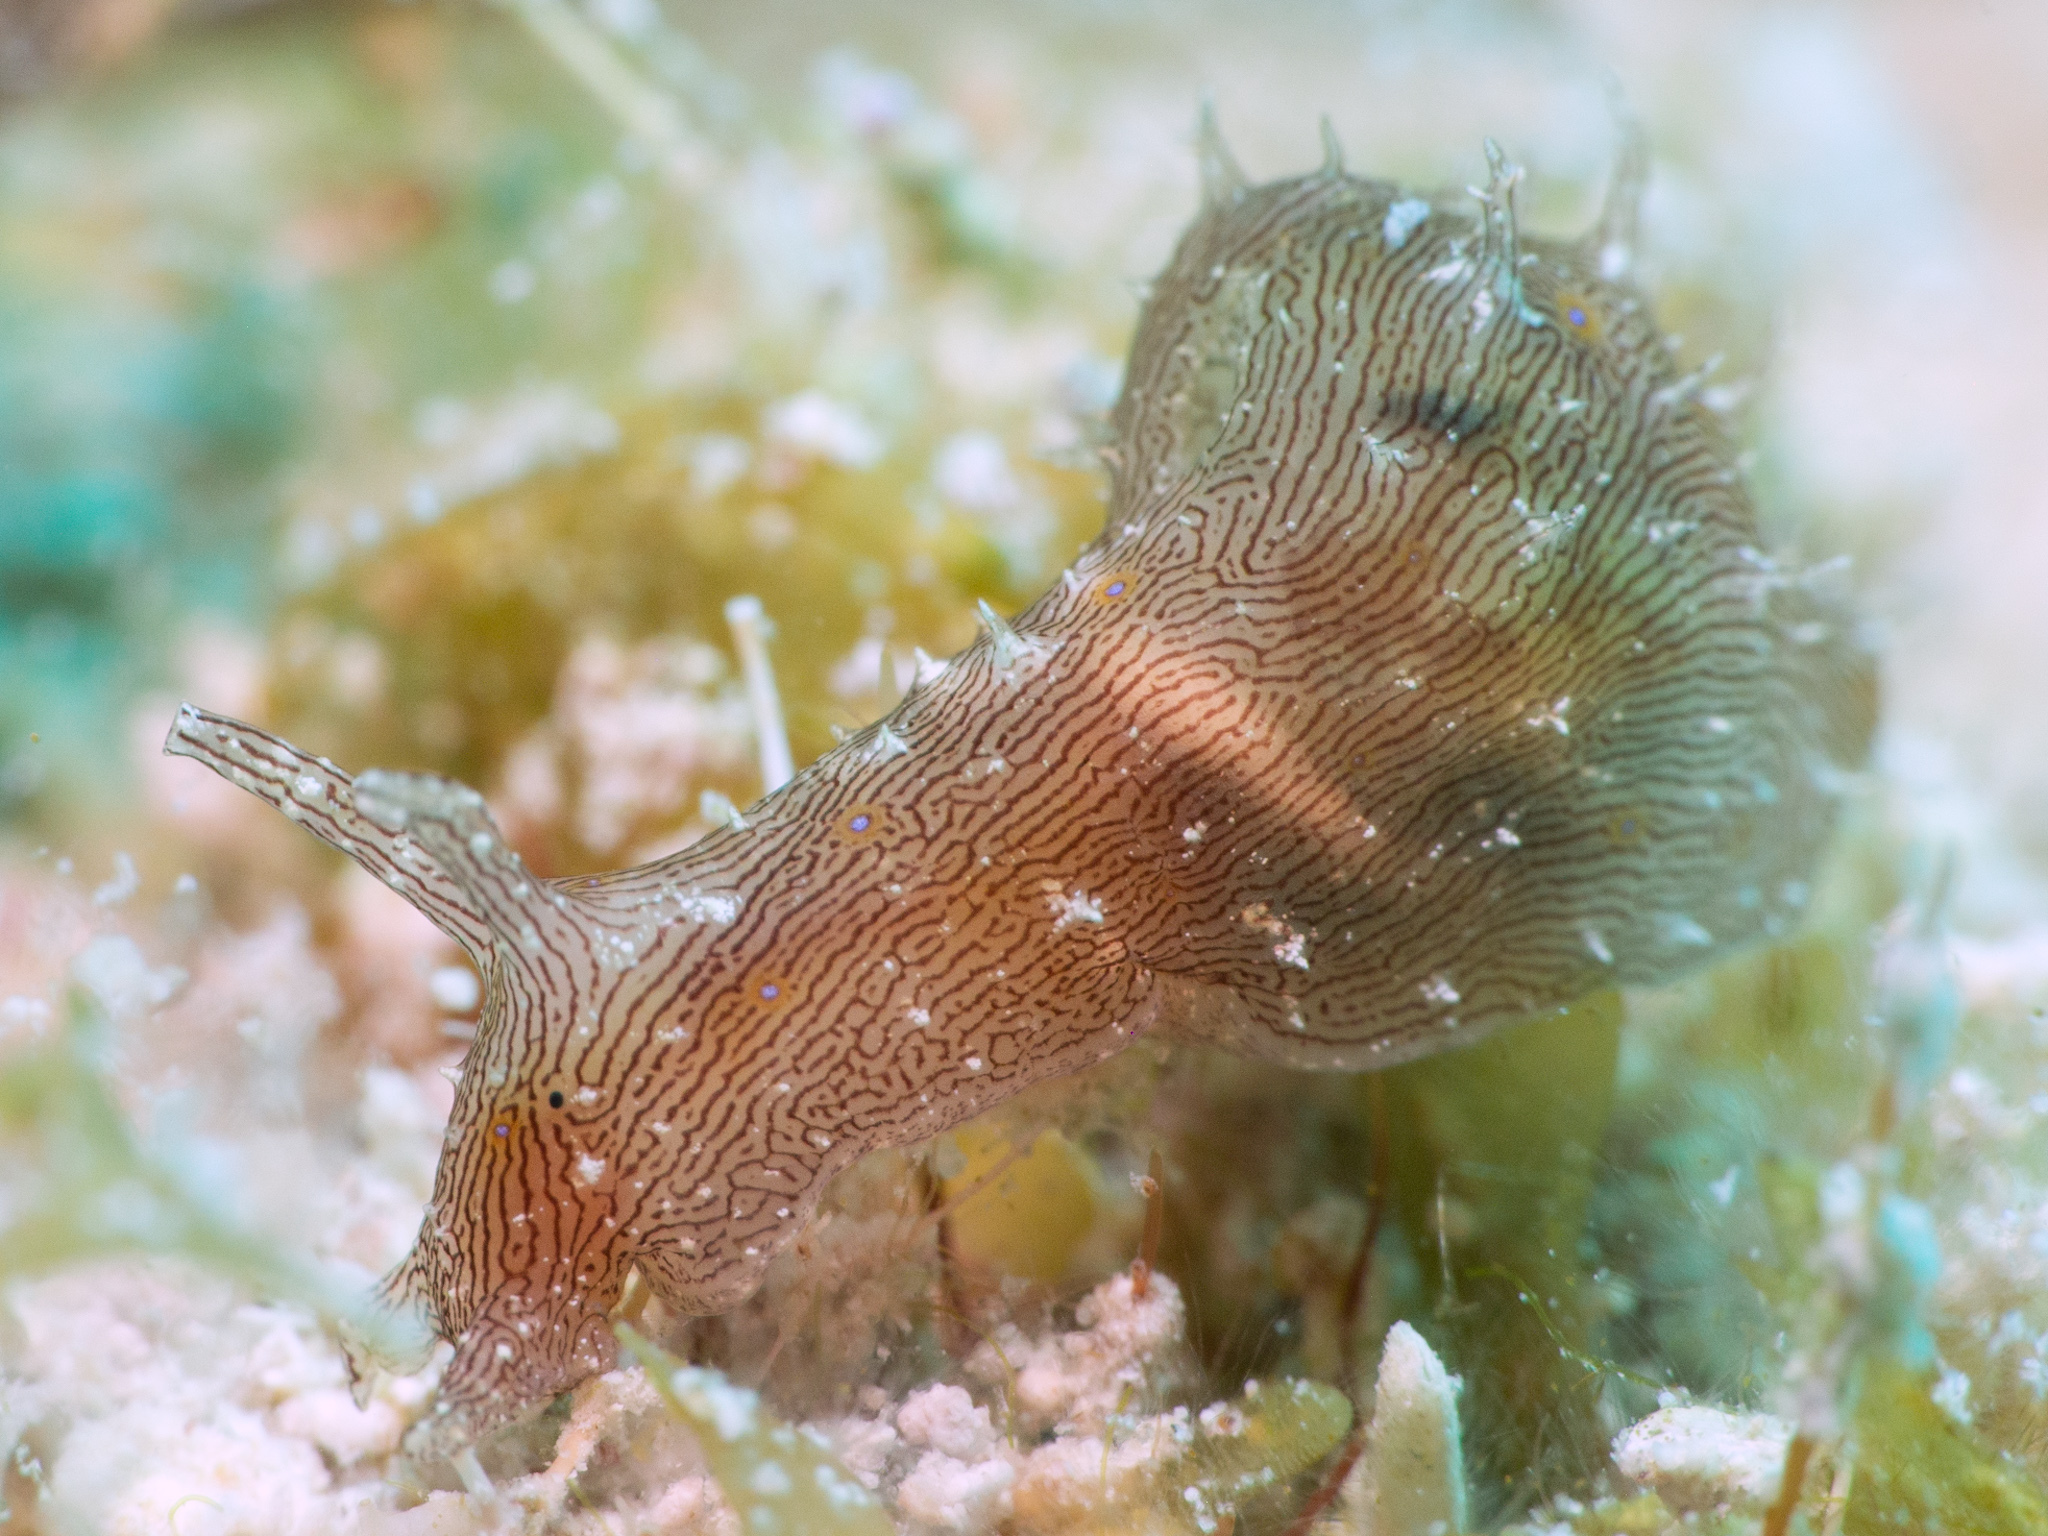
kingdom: Animalia
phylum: Mollusca
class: Gastropoda
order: Aplysiida
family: Aplysiidae
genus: Stylocheilus
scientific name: Stylocheilus polyomma
